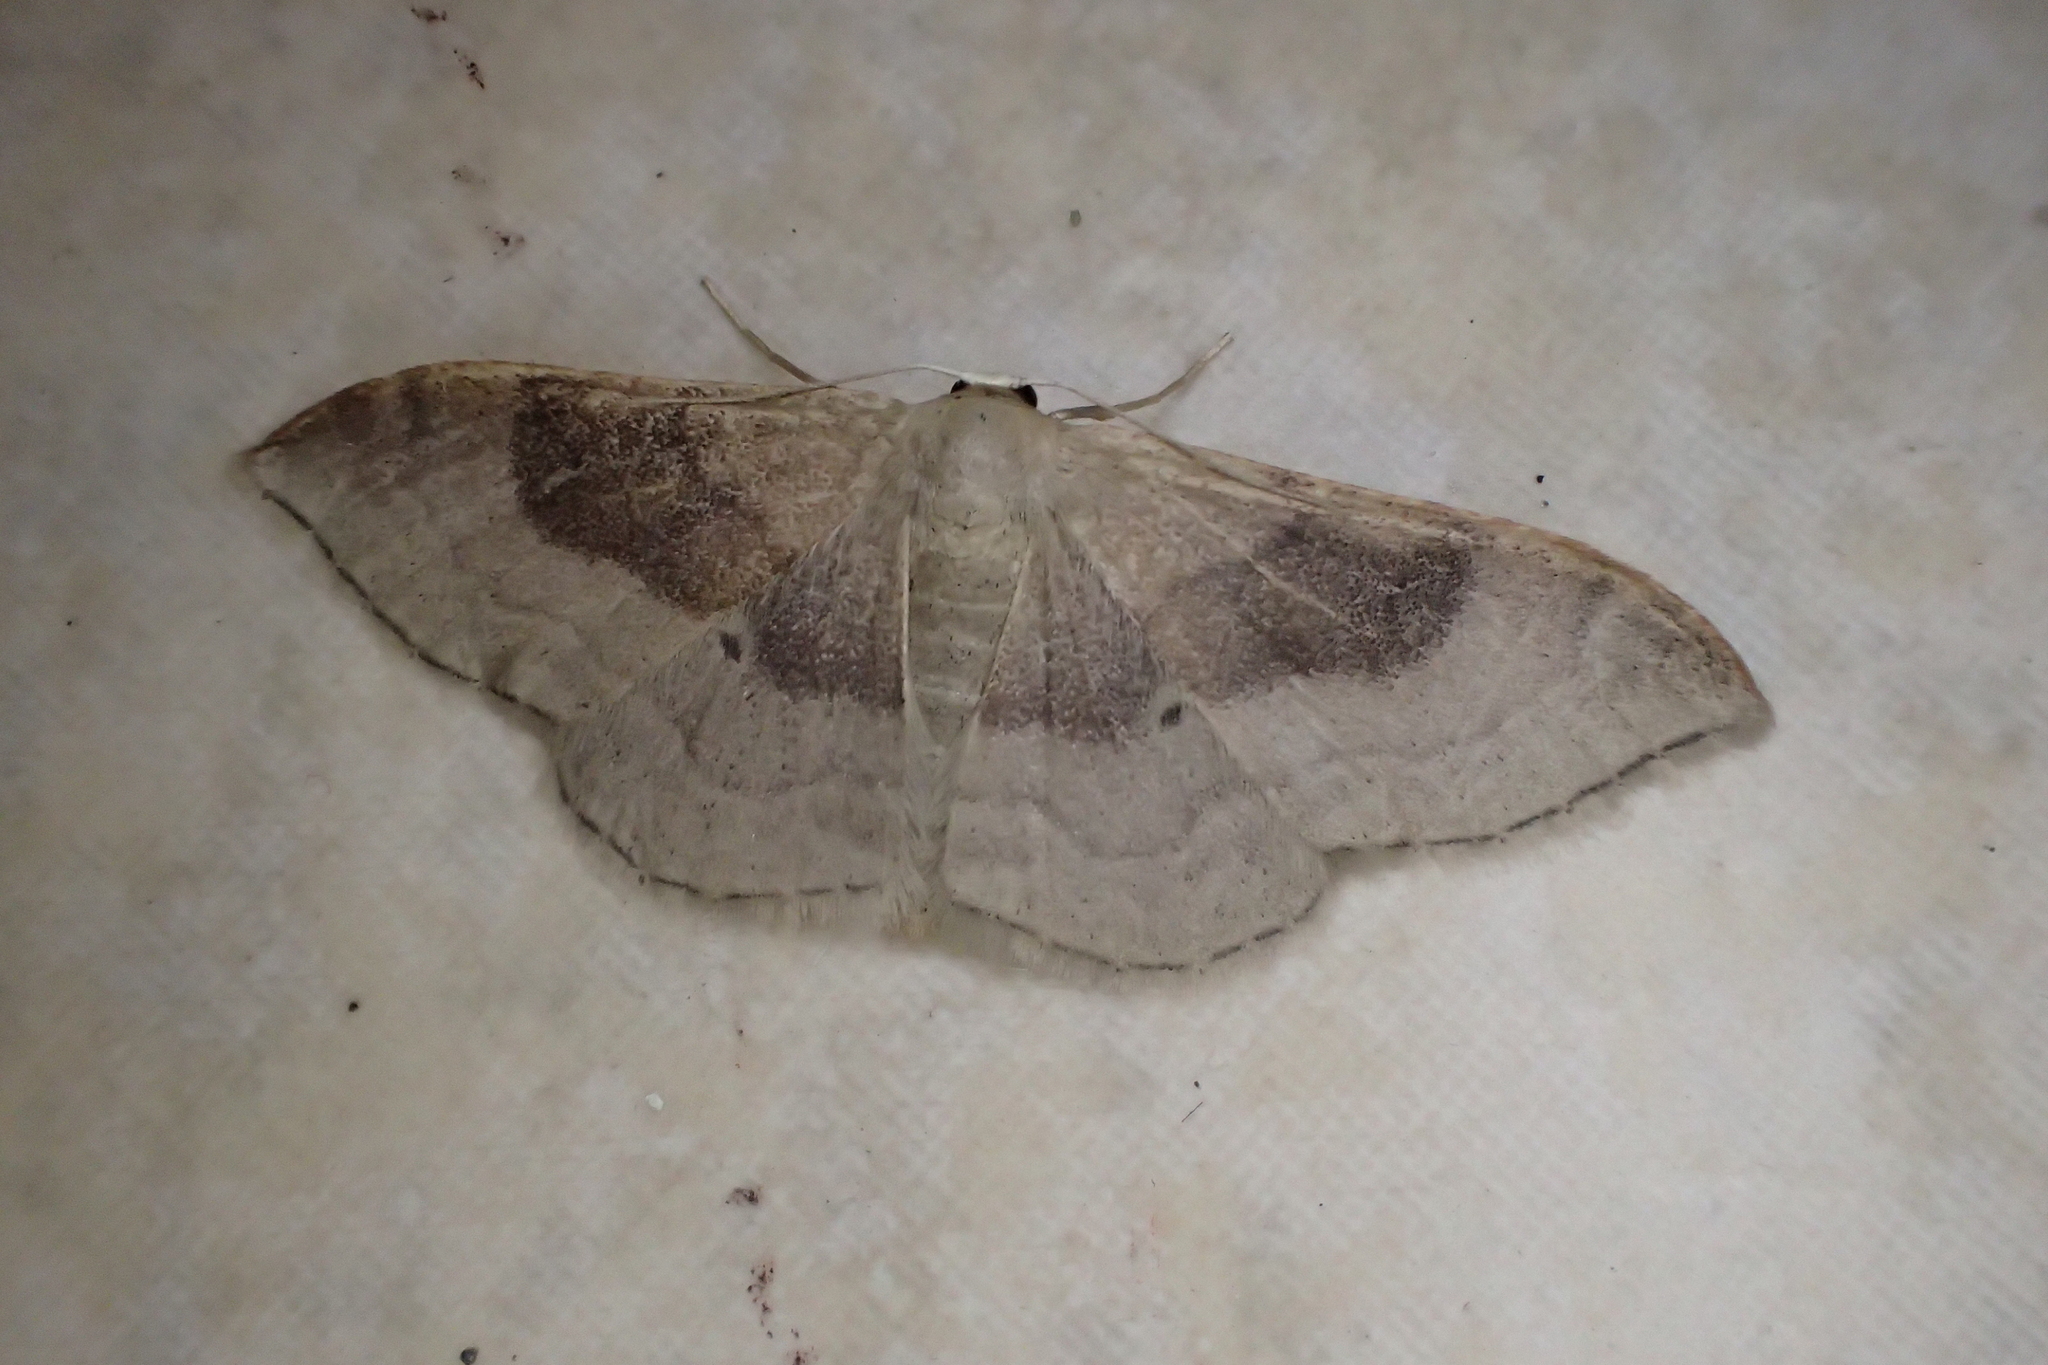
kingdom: Animalia
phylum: Arthropoda
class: Insecta
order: Lepidoptera
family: Geometridae
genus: Idaea
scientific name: Idaea degeneraria
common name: Portland ribbon wave
